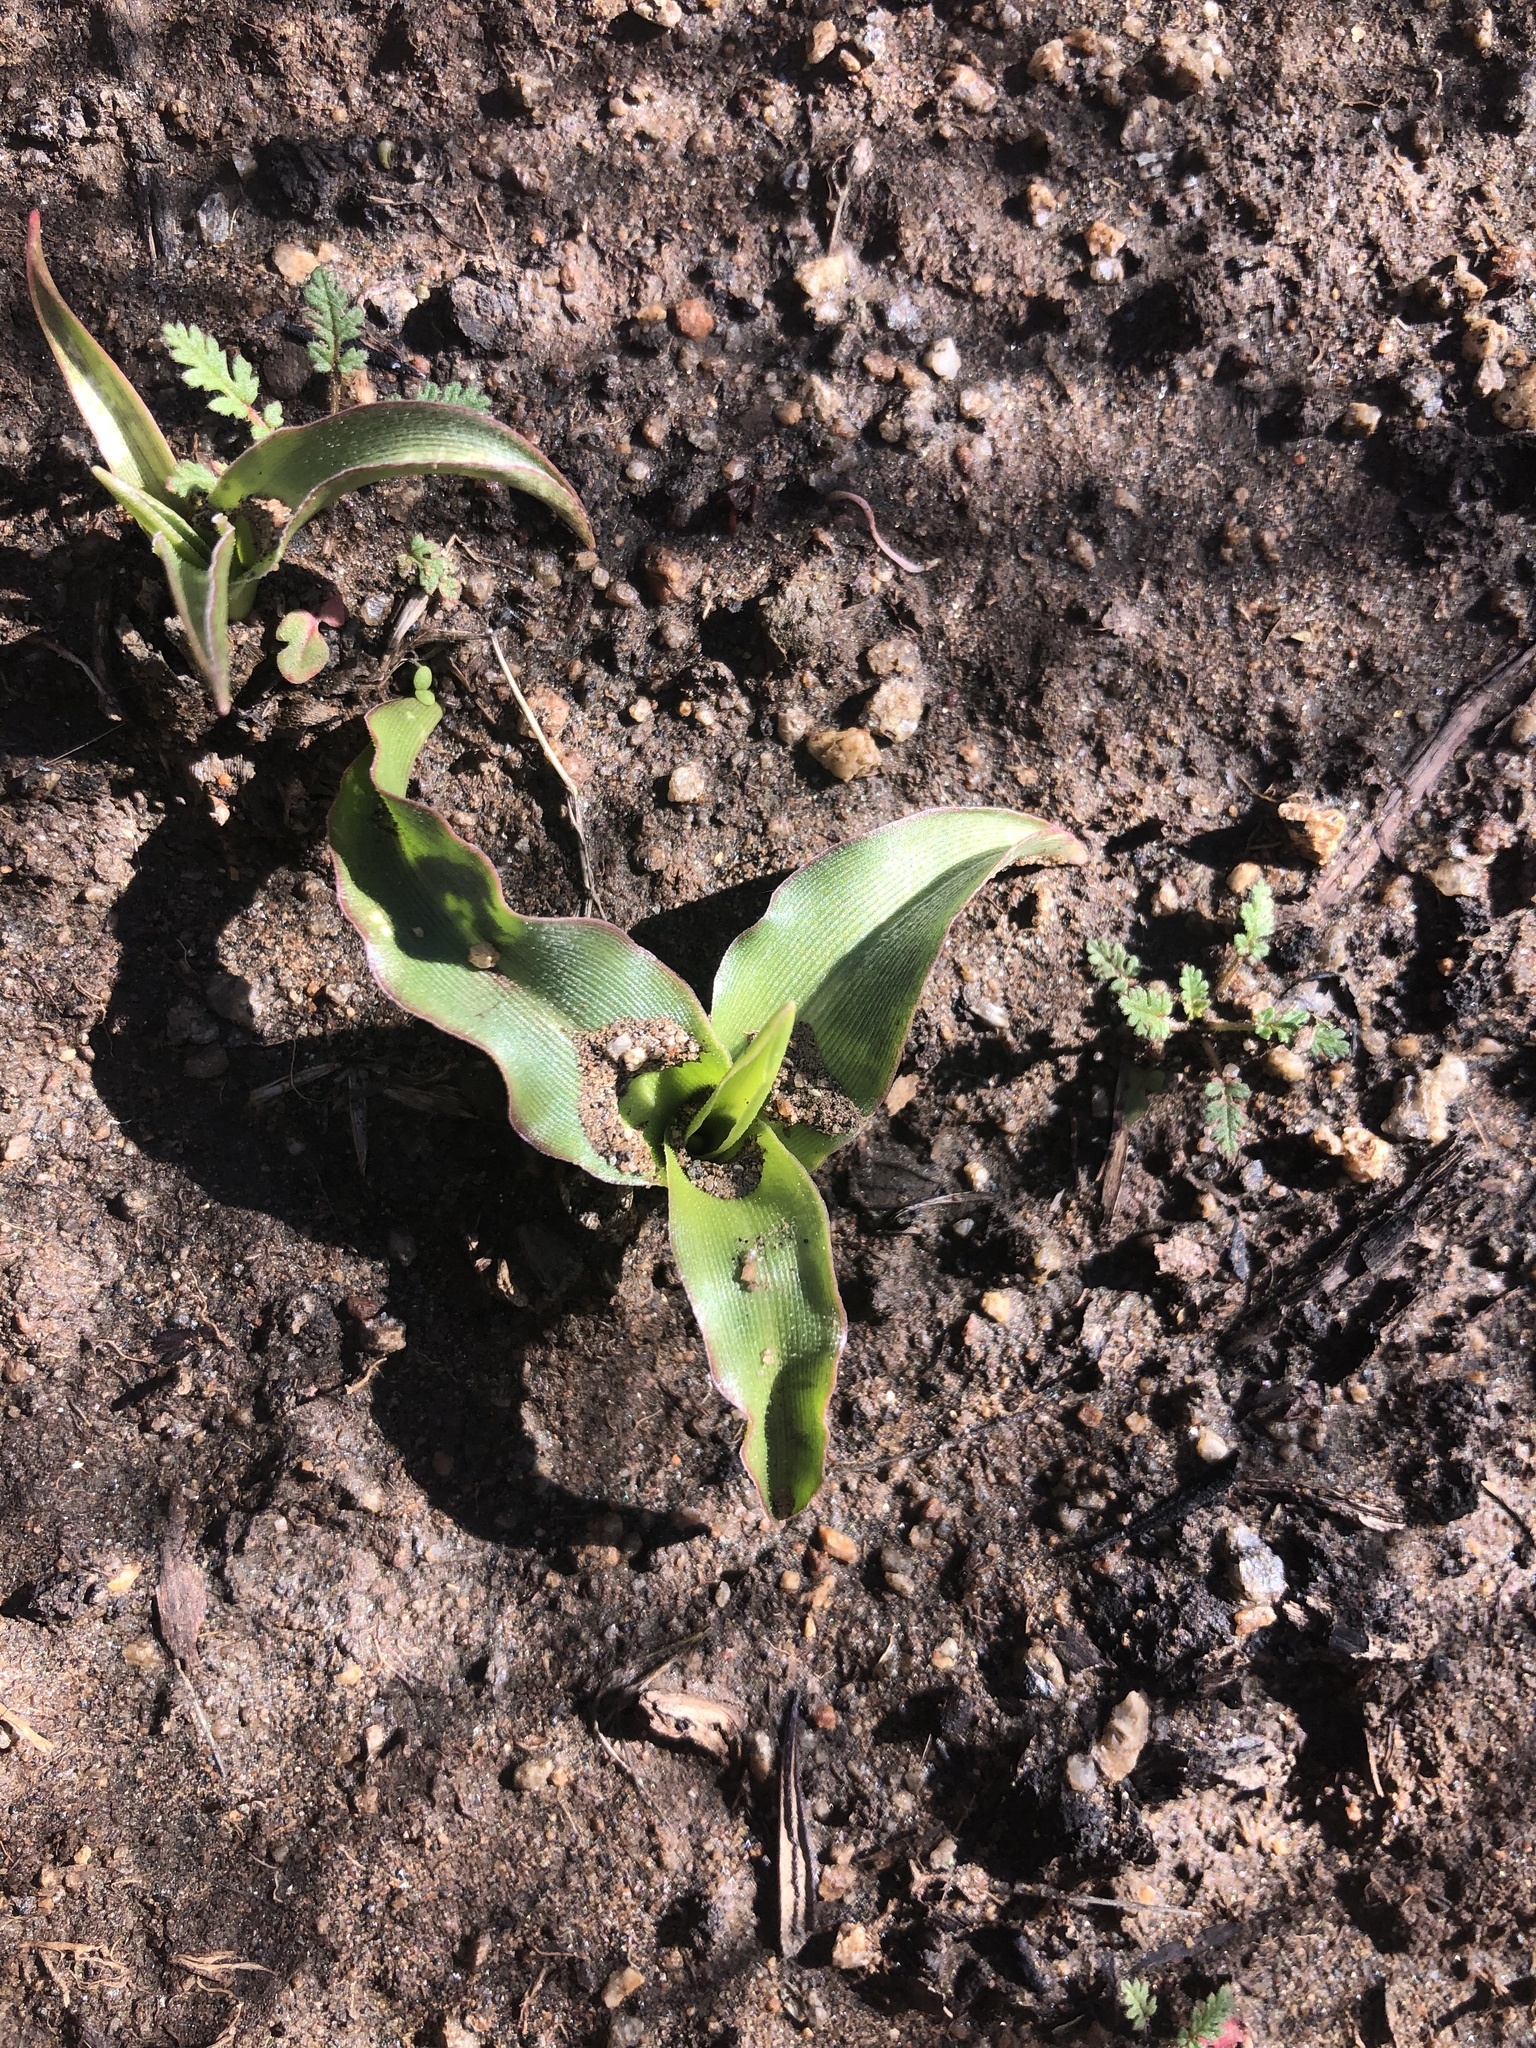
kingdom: Plantae
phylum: Tracheophyta
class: Liliopsida
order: Asparagales
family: Asparagaceae
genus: Hooveria
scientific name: Hooveria parviflora
